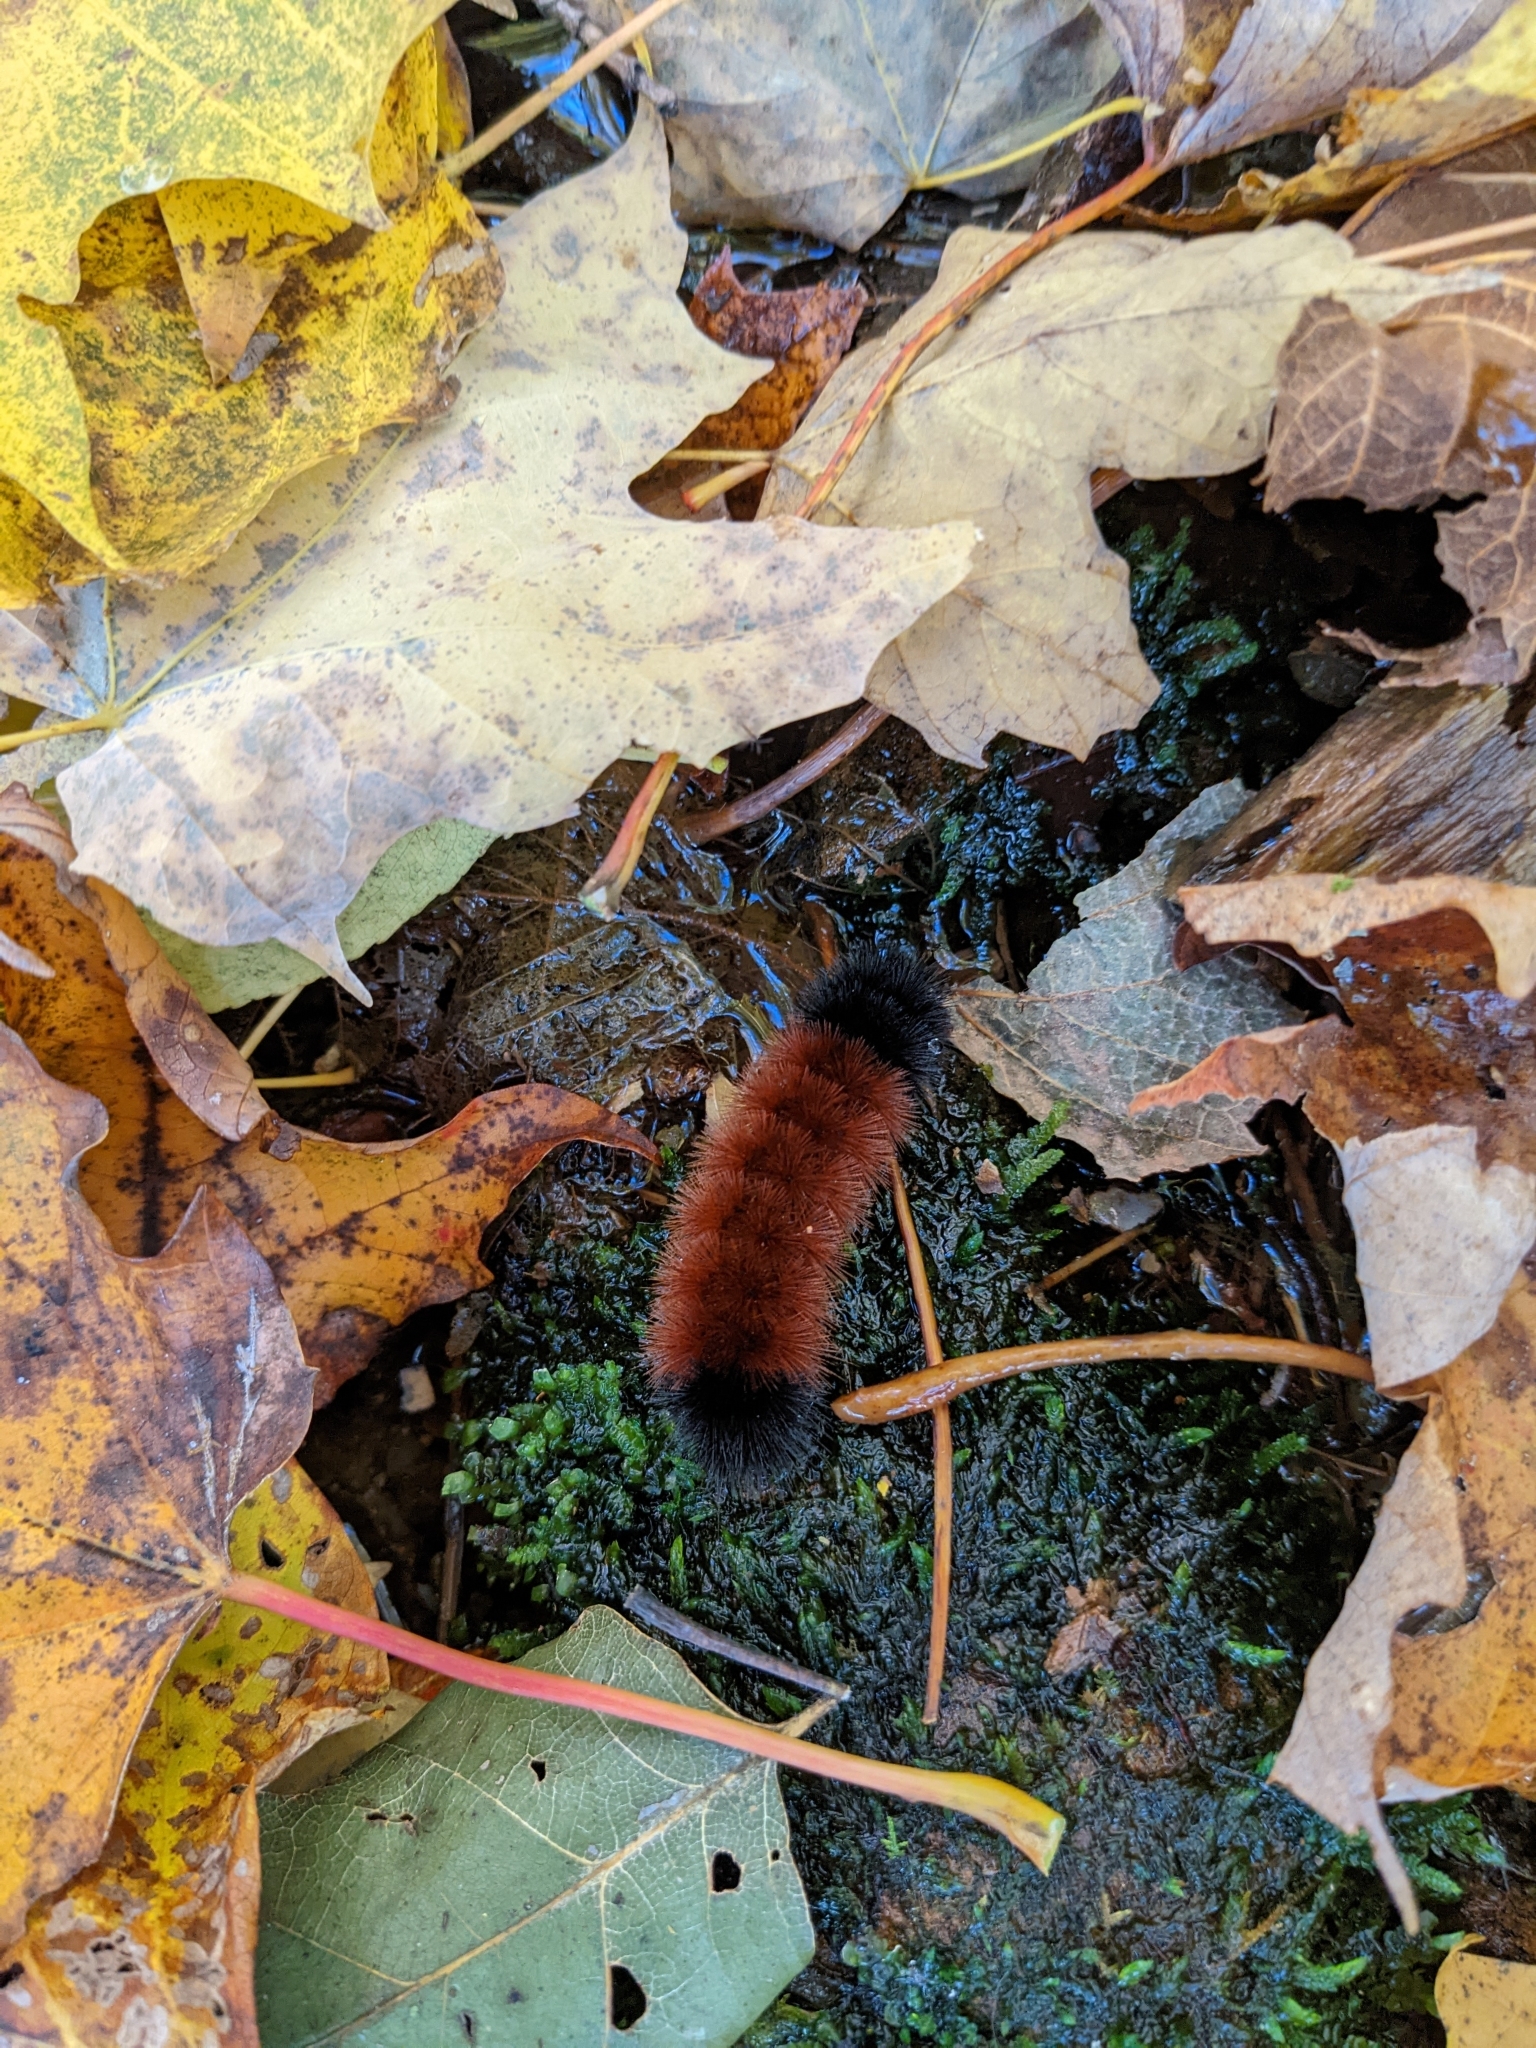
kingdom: Animalia
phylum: Arthropoda
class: Insecta
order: Lepidoptera
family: Erebidae
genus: Pyrrharctia
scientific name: Pyrrharctia isabella
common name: Isabella tiger moth
